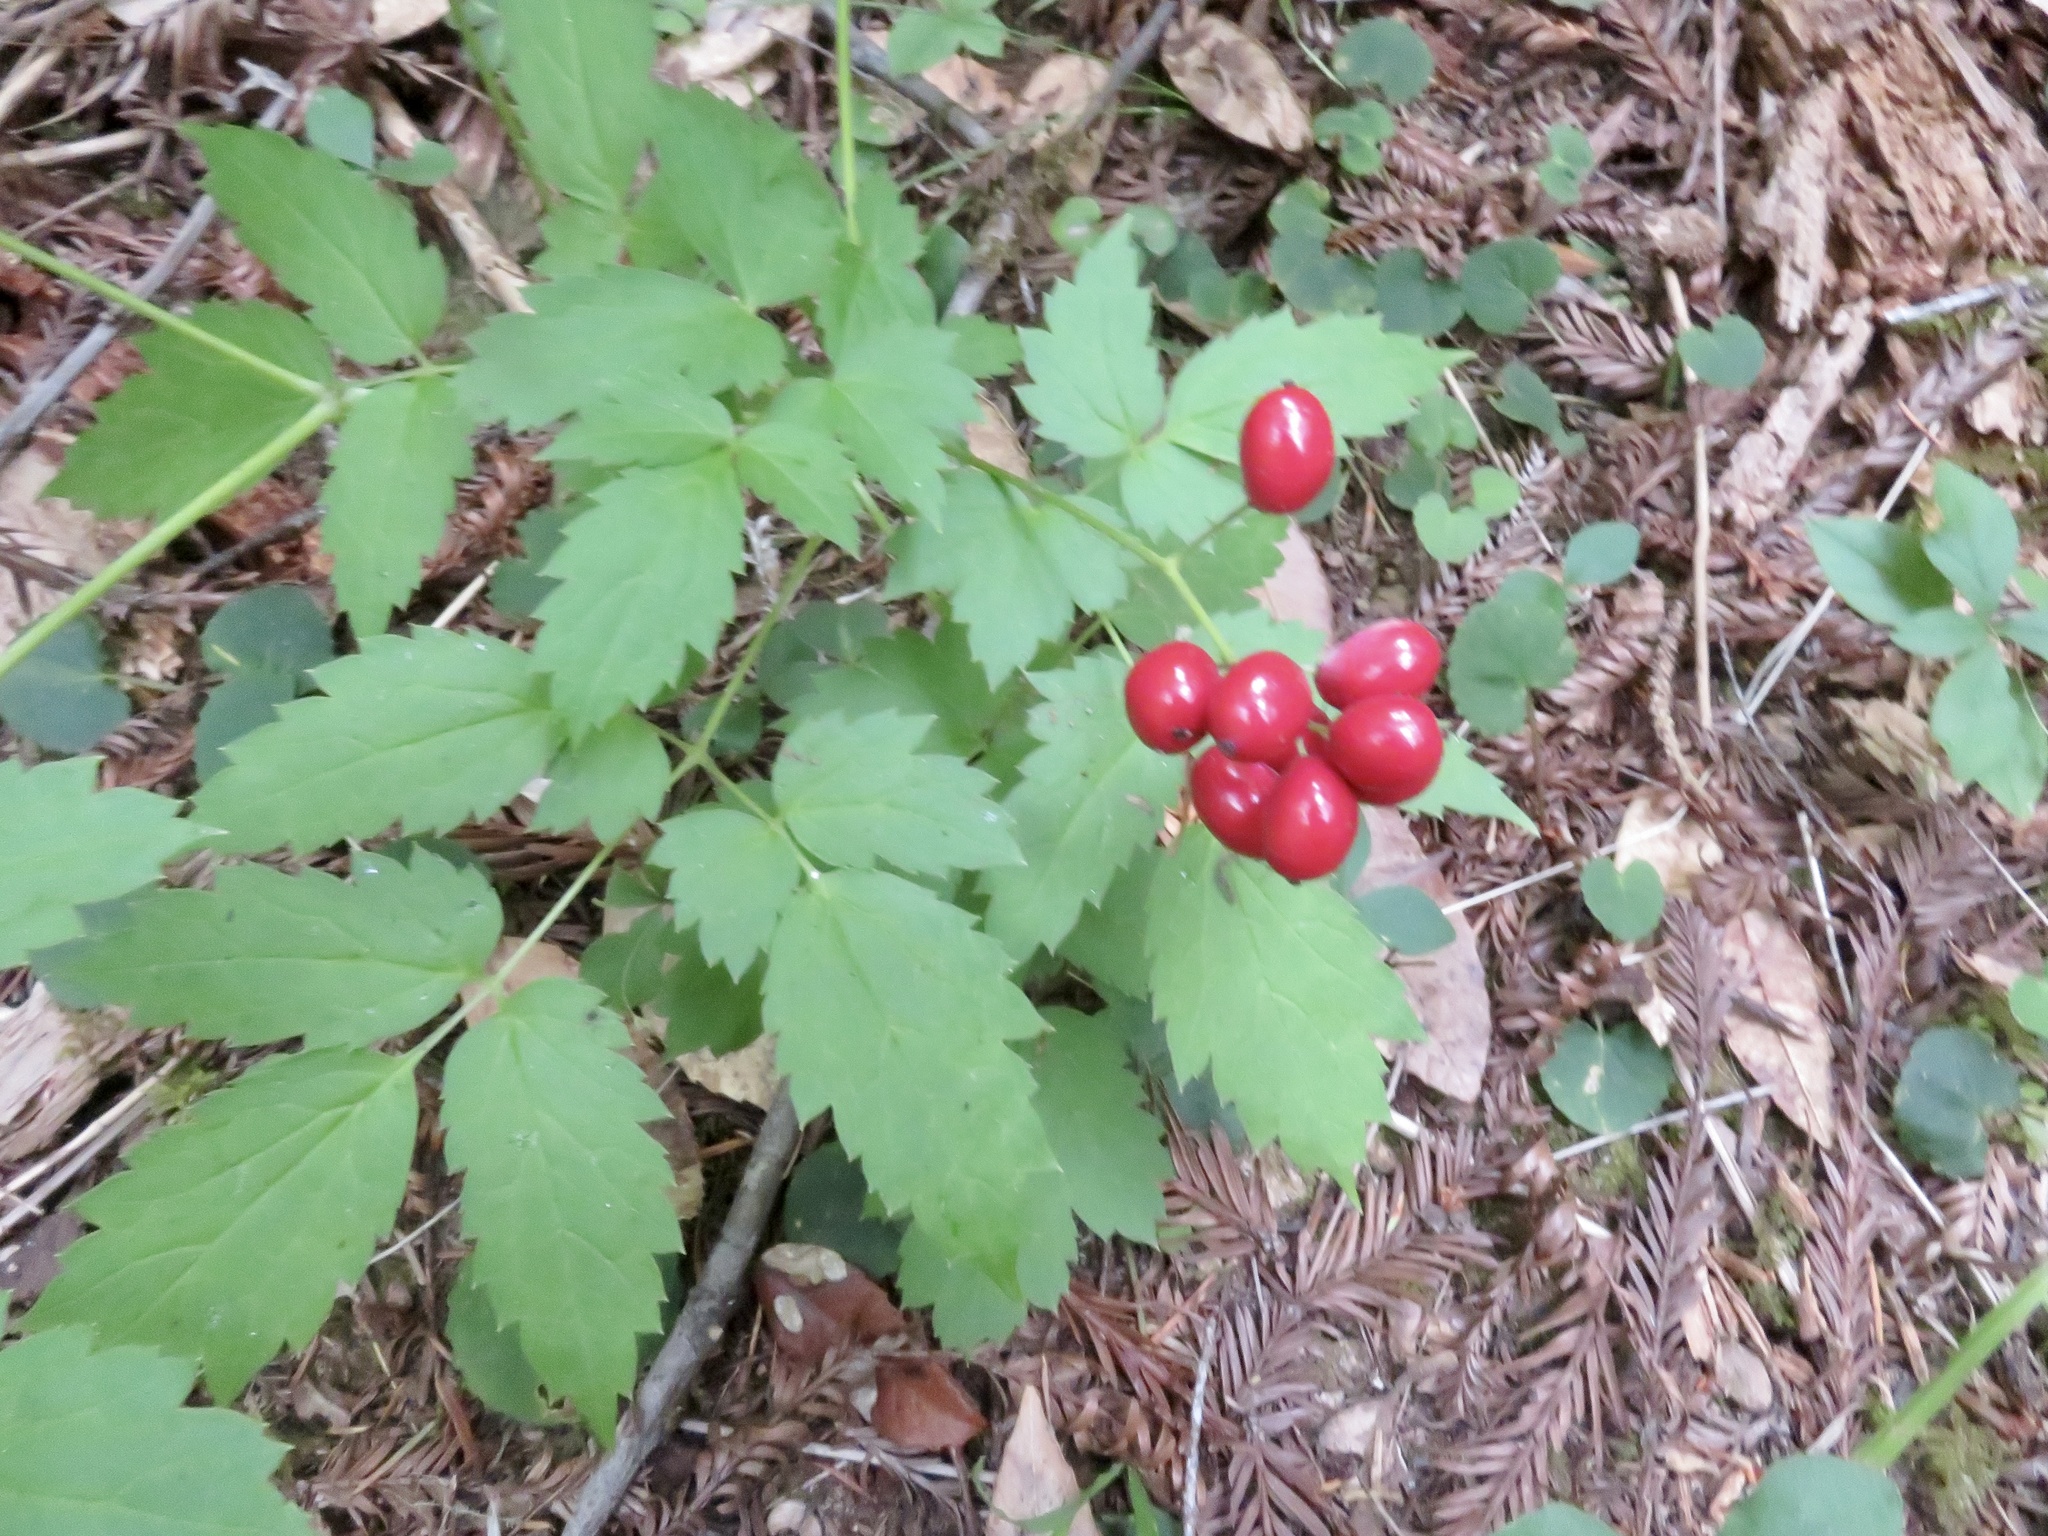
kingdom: Plantae
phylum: Tracheophyta
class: Magnoliopsida
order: Ranunculales
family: Ranunculaceae
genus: Actaea
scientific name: Actaea rubra
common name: Red baneberry
